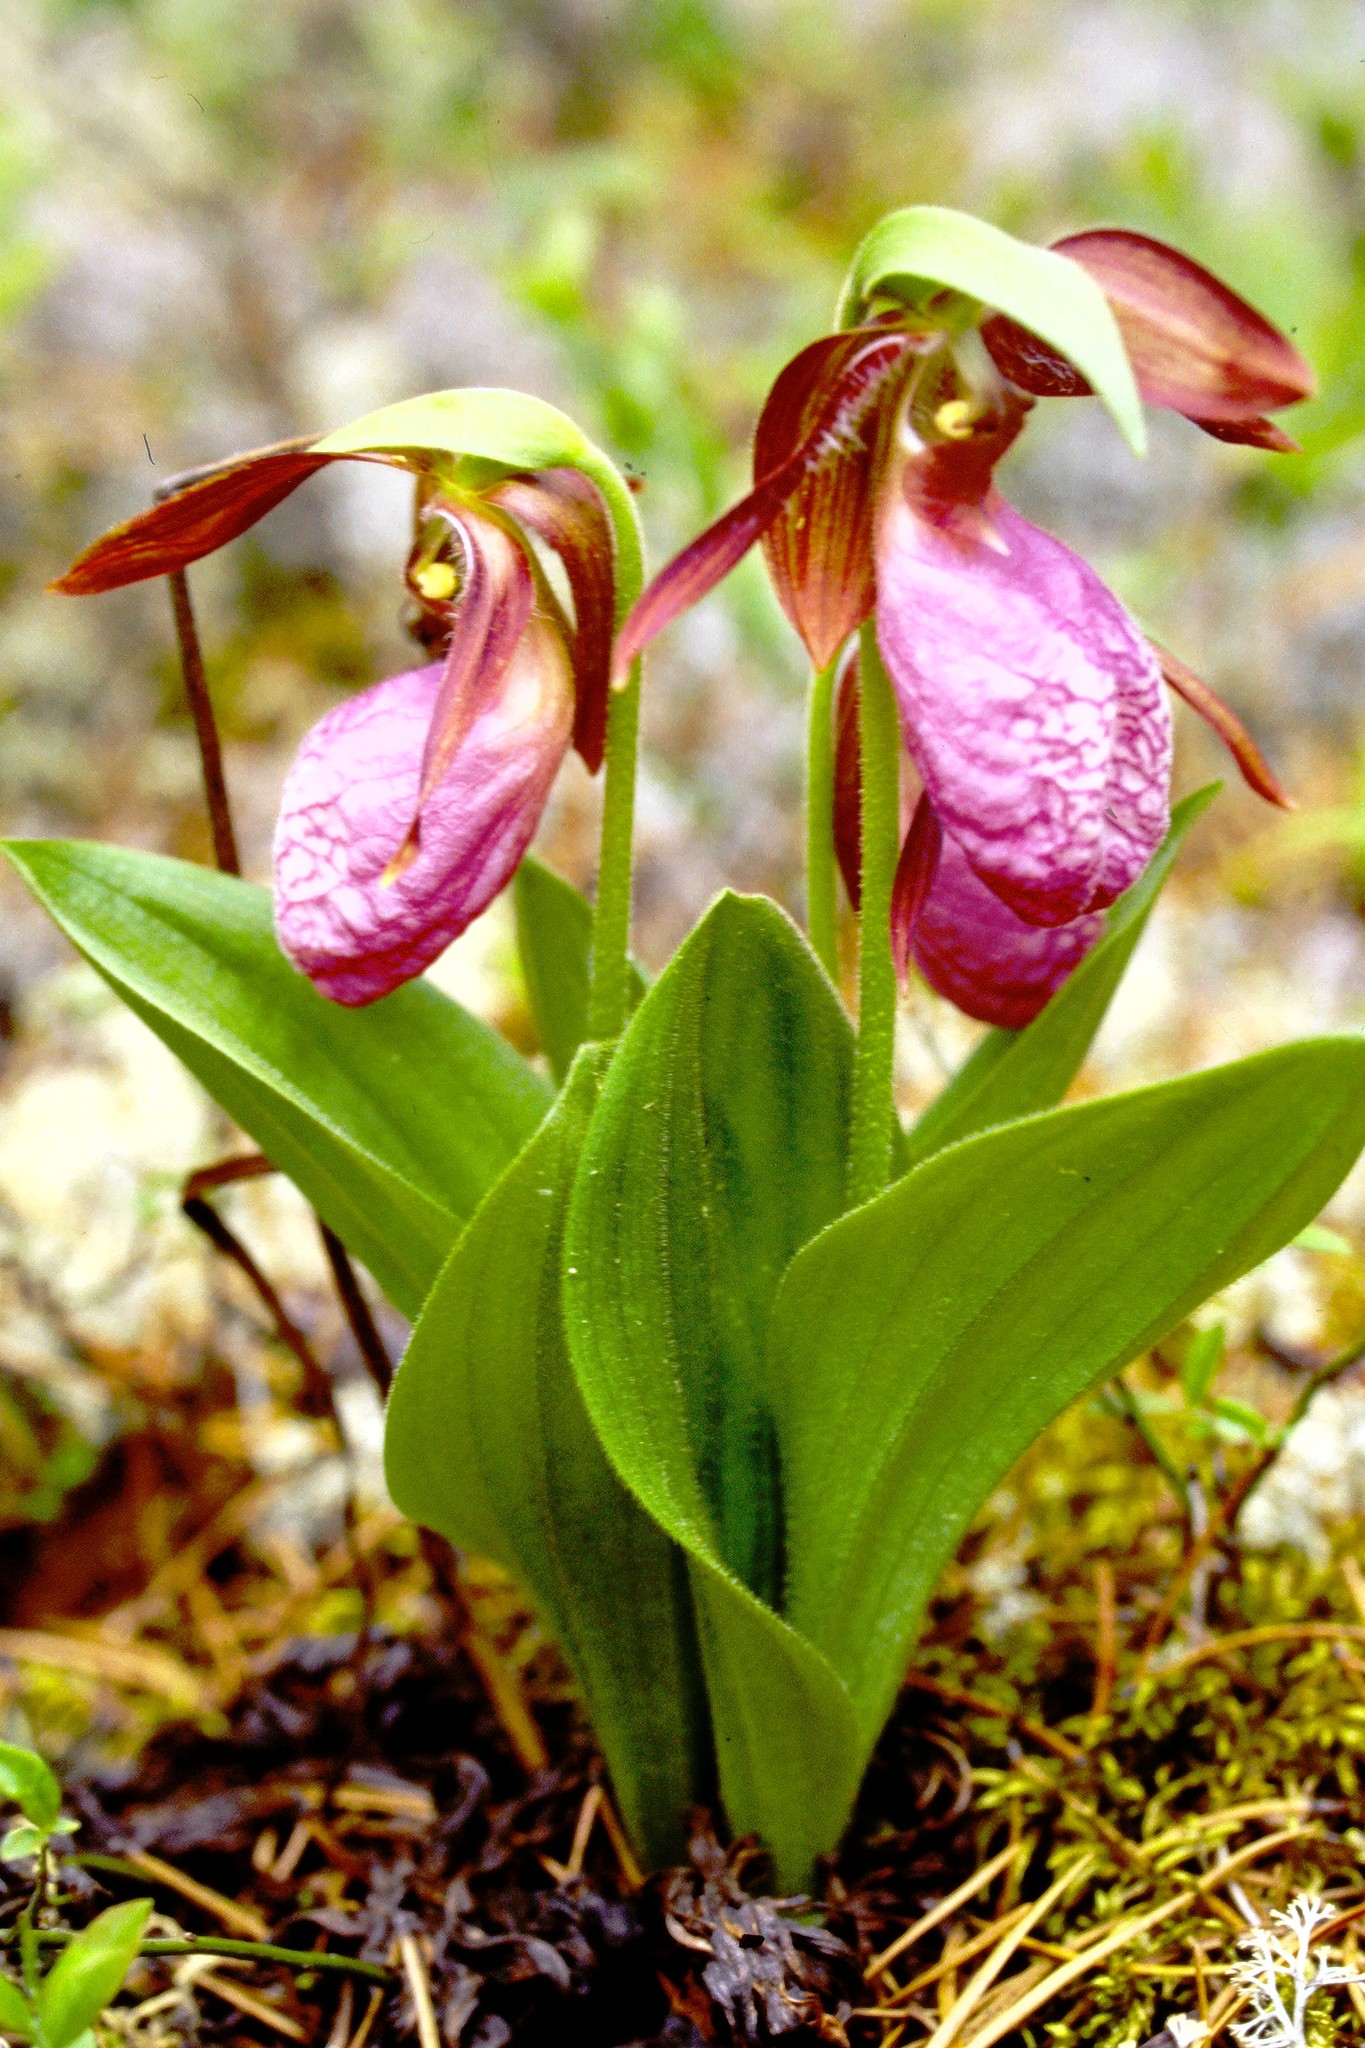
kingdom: Plantae
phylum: Tracheophyta
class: Liliopsida
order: Asparagales
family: Orchidaceae
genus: Cypripedium
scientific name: Cypripedium acaule
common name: Pink lady's-slipper
